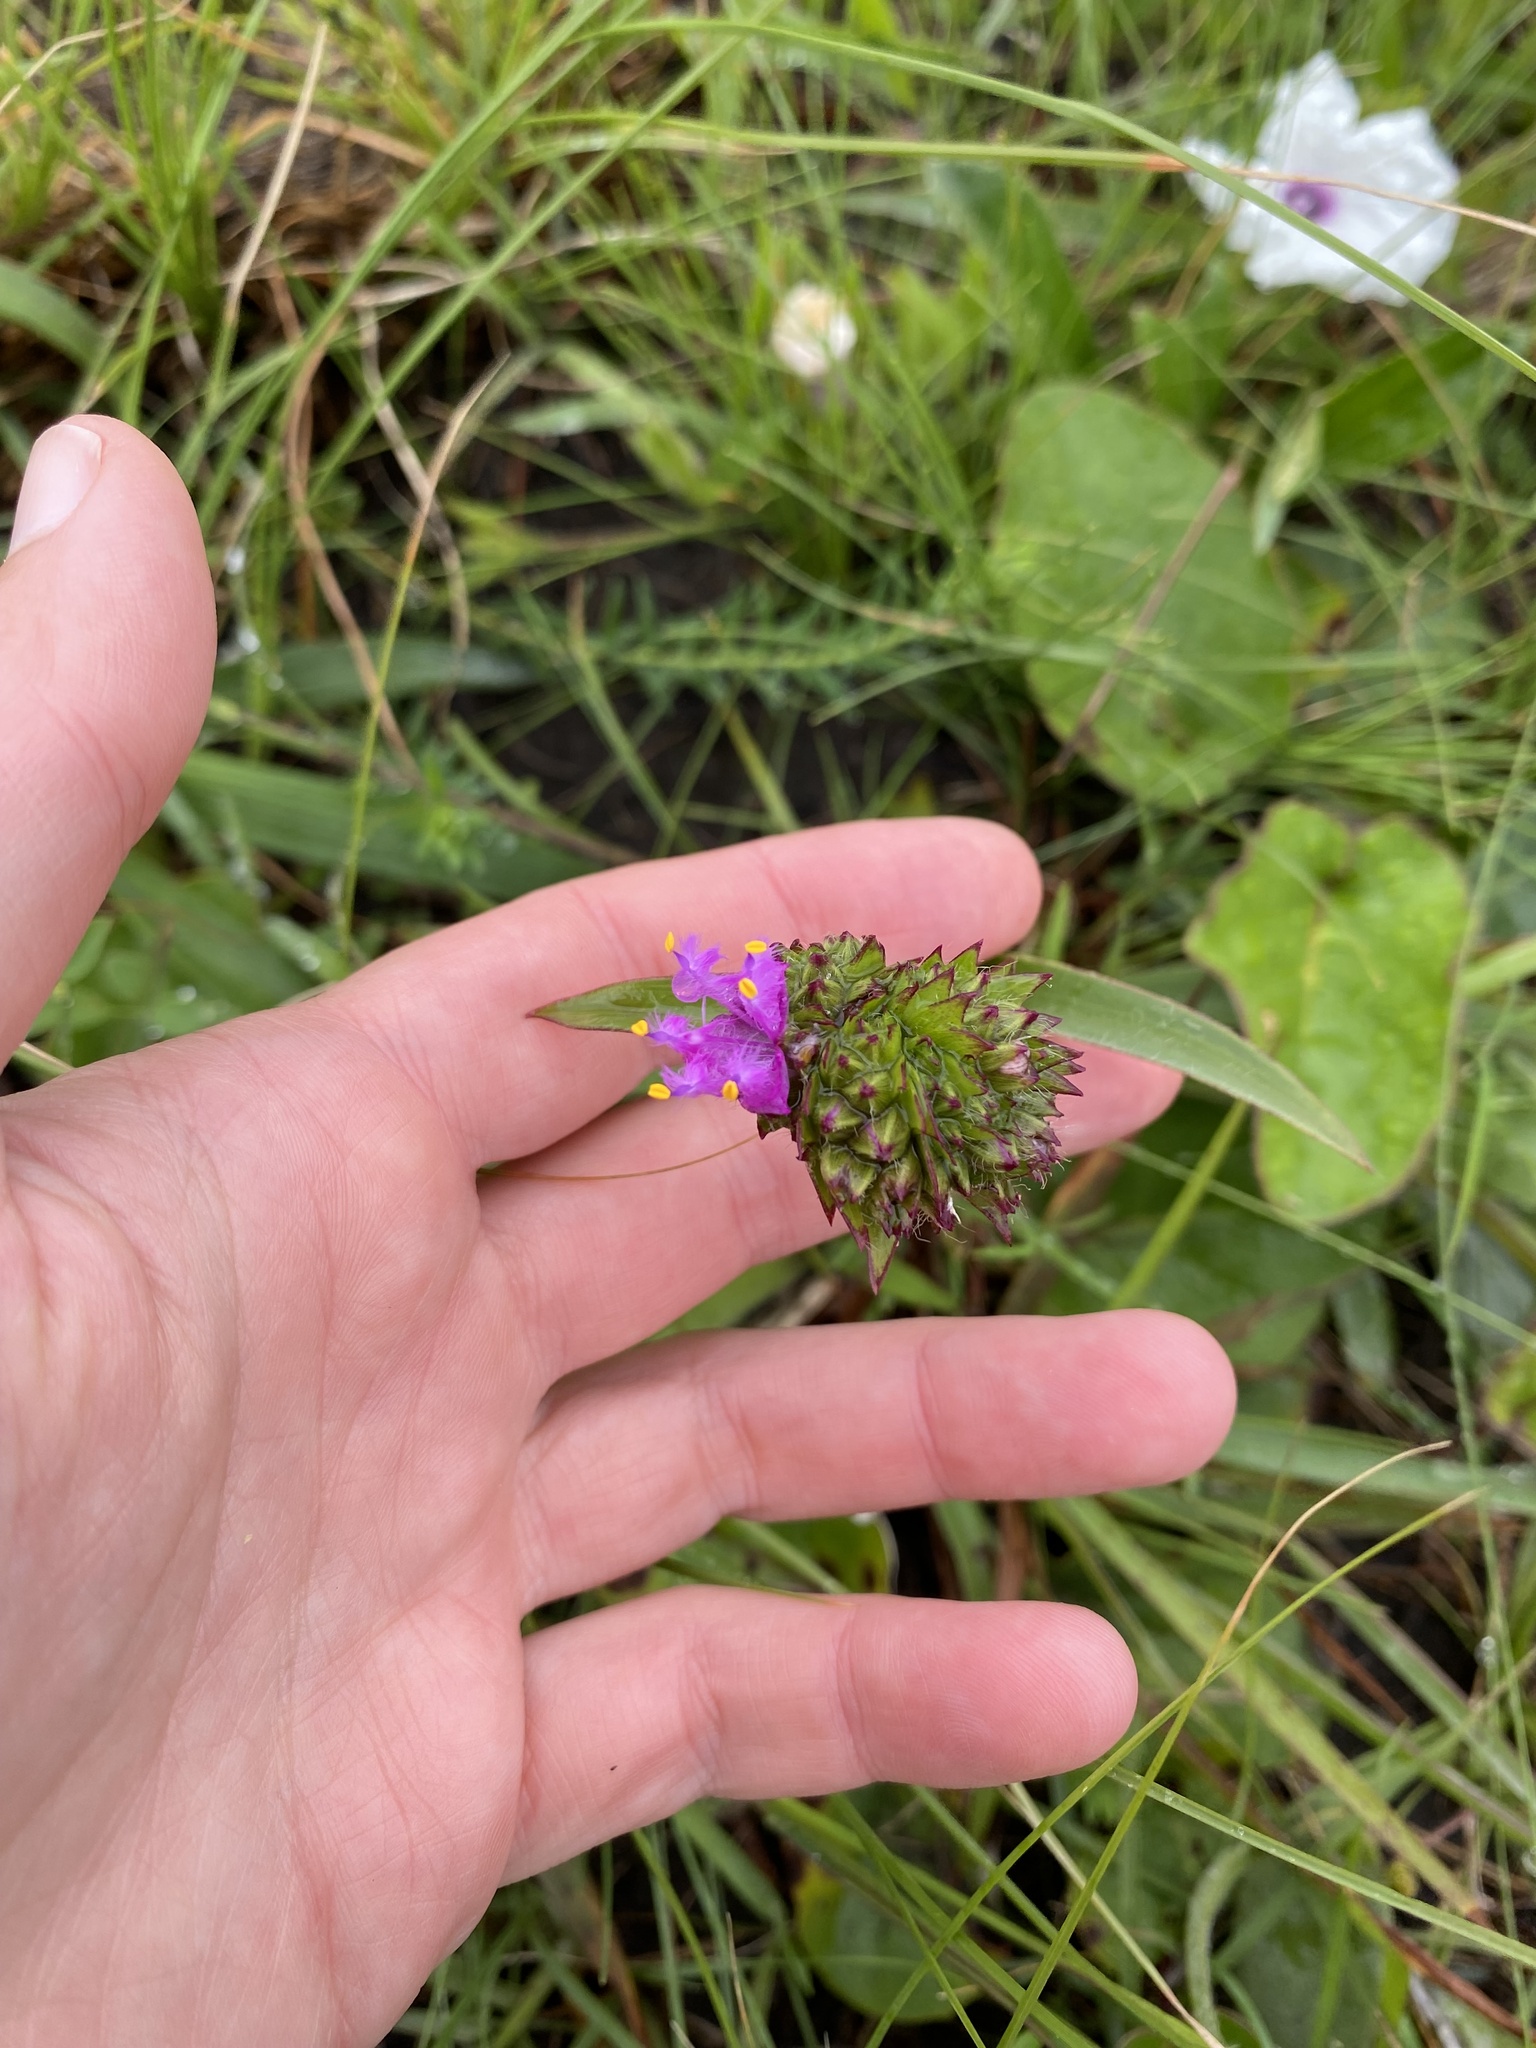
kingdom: Plantae
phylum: Tracheophyta
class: Liliopsida
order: Commelinales
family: Commelinaceae
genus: Cyanotis
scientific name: Cyanotis speciosa
